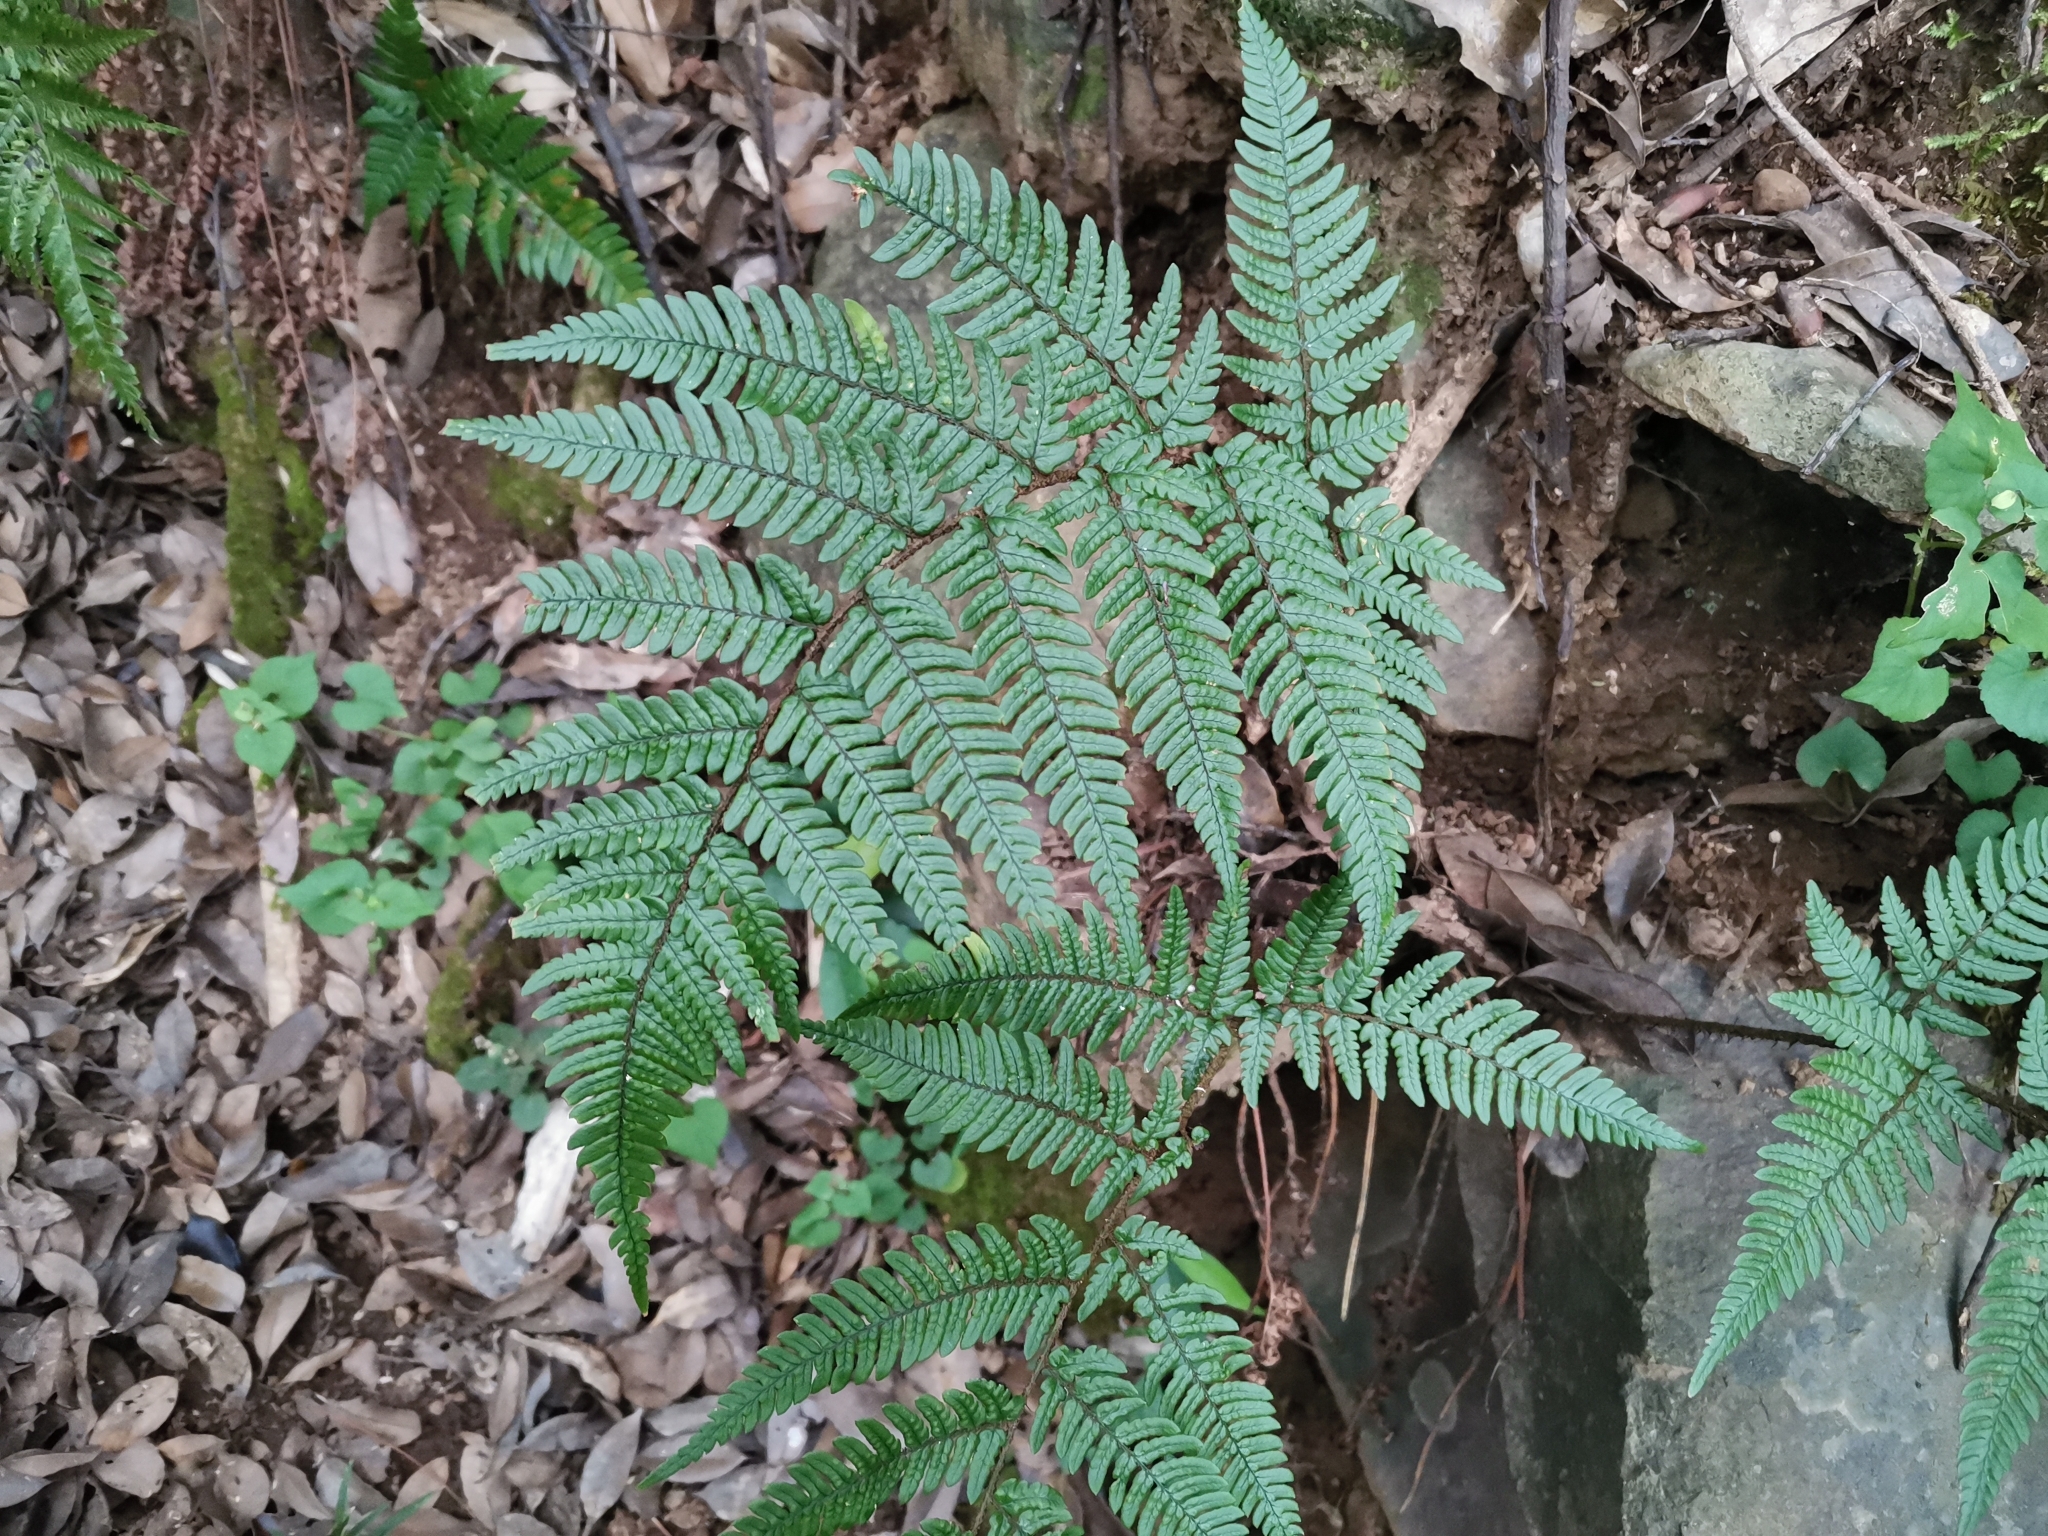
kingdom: Plantae
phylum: Tracheophyta
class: Polypodiopsida
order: Polypodiales
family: Dryopteridaceae
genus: Dryopteris
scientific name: Dryopteris bissetiana
